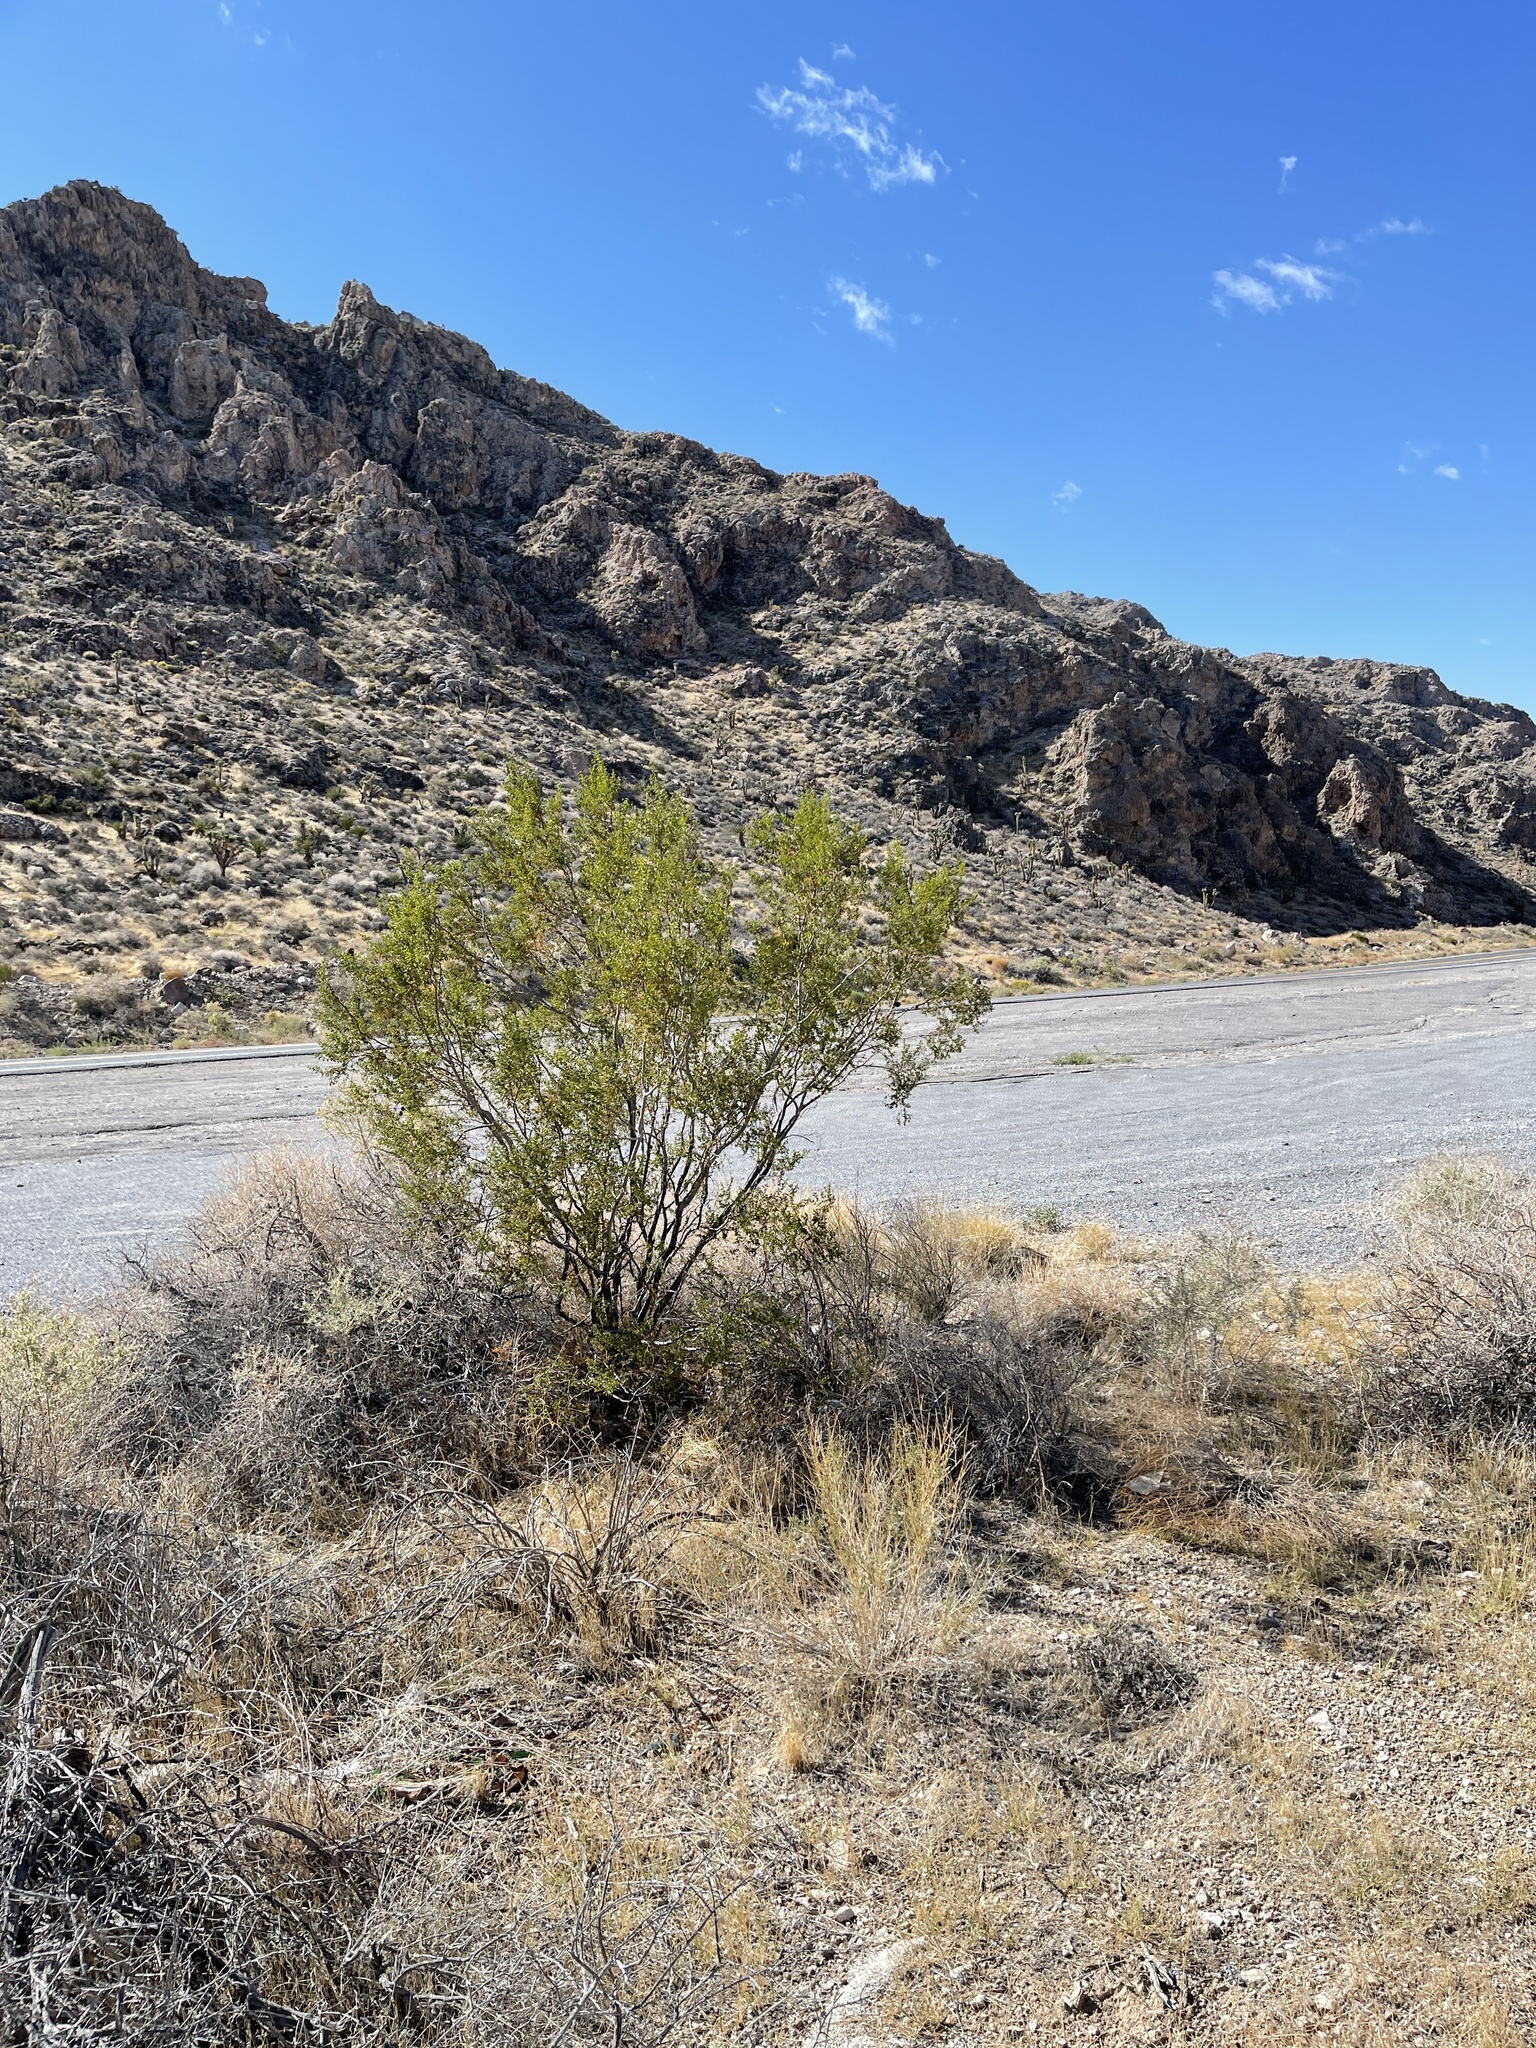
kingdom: Plantae
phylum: Tracheophyta
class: Magnoliopsida
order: Zygophyllales
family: Zygophyllaceae
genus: Larrea
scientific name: Larrea tridentata
